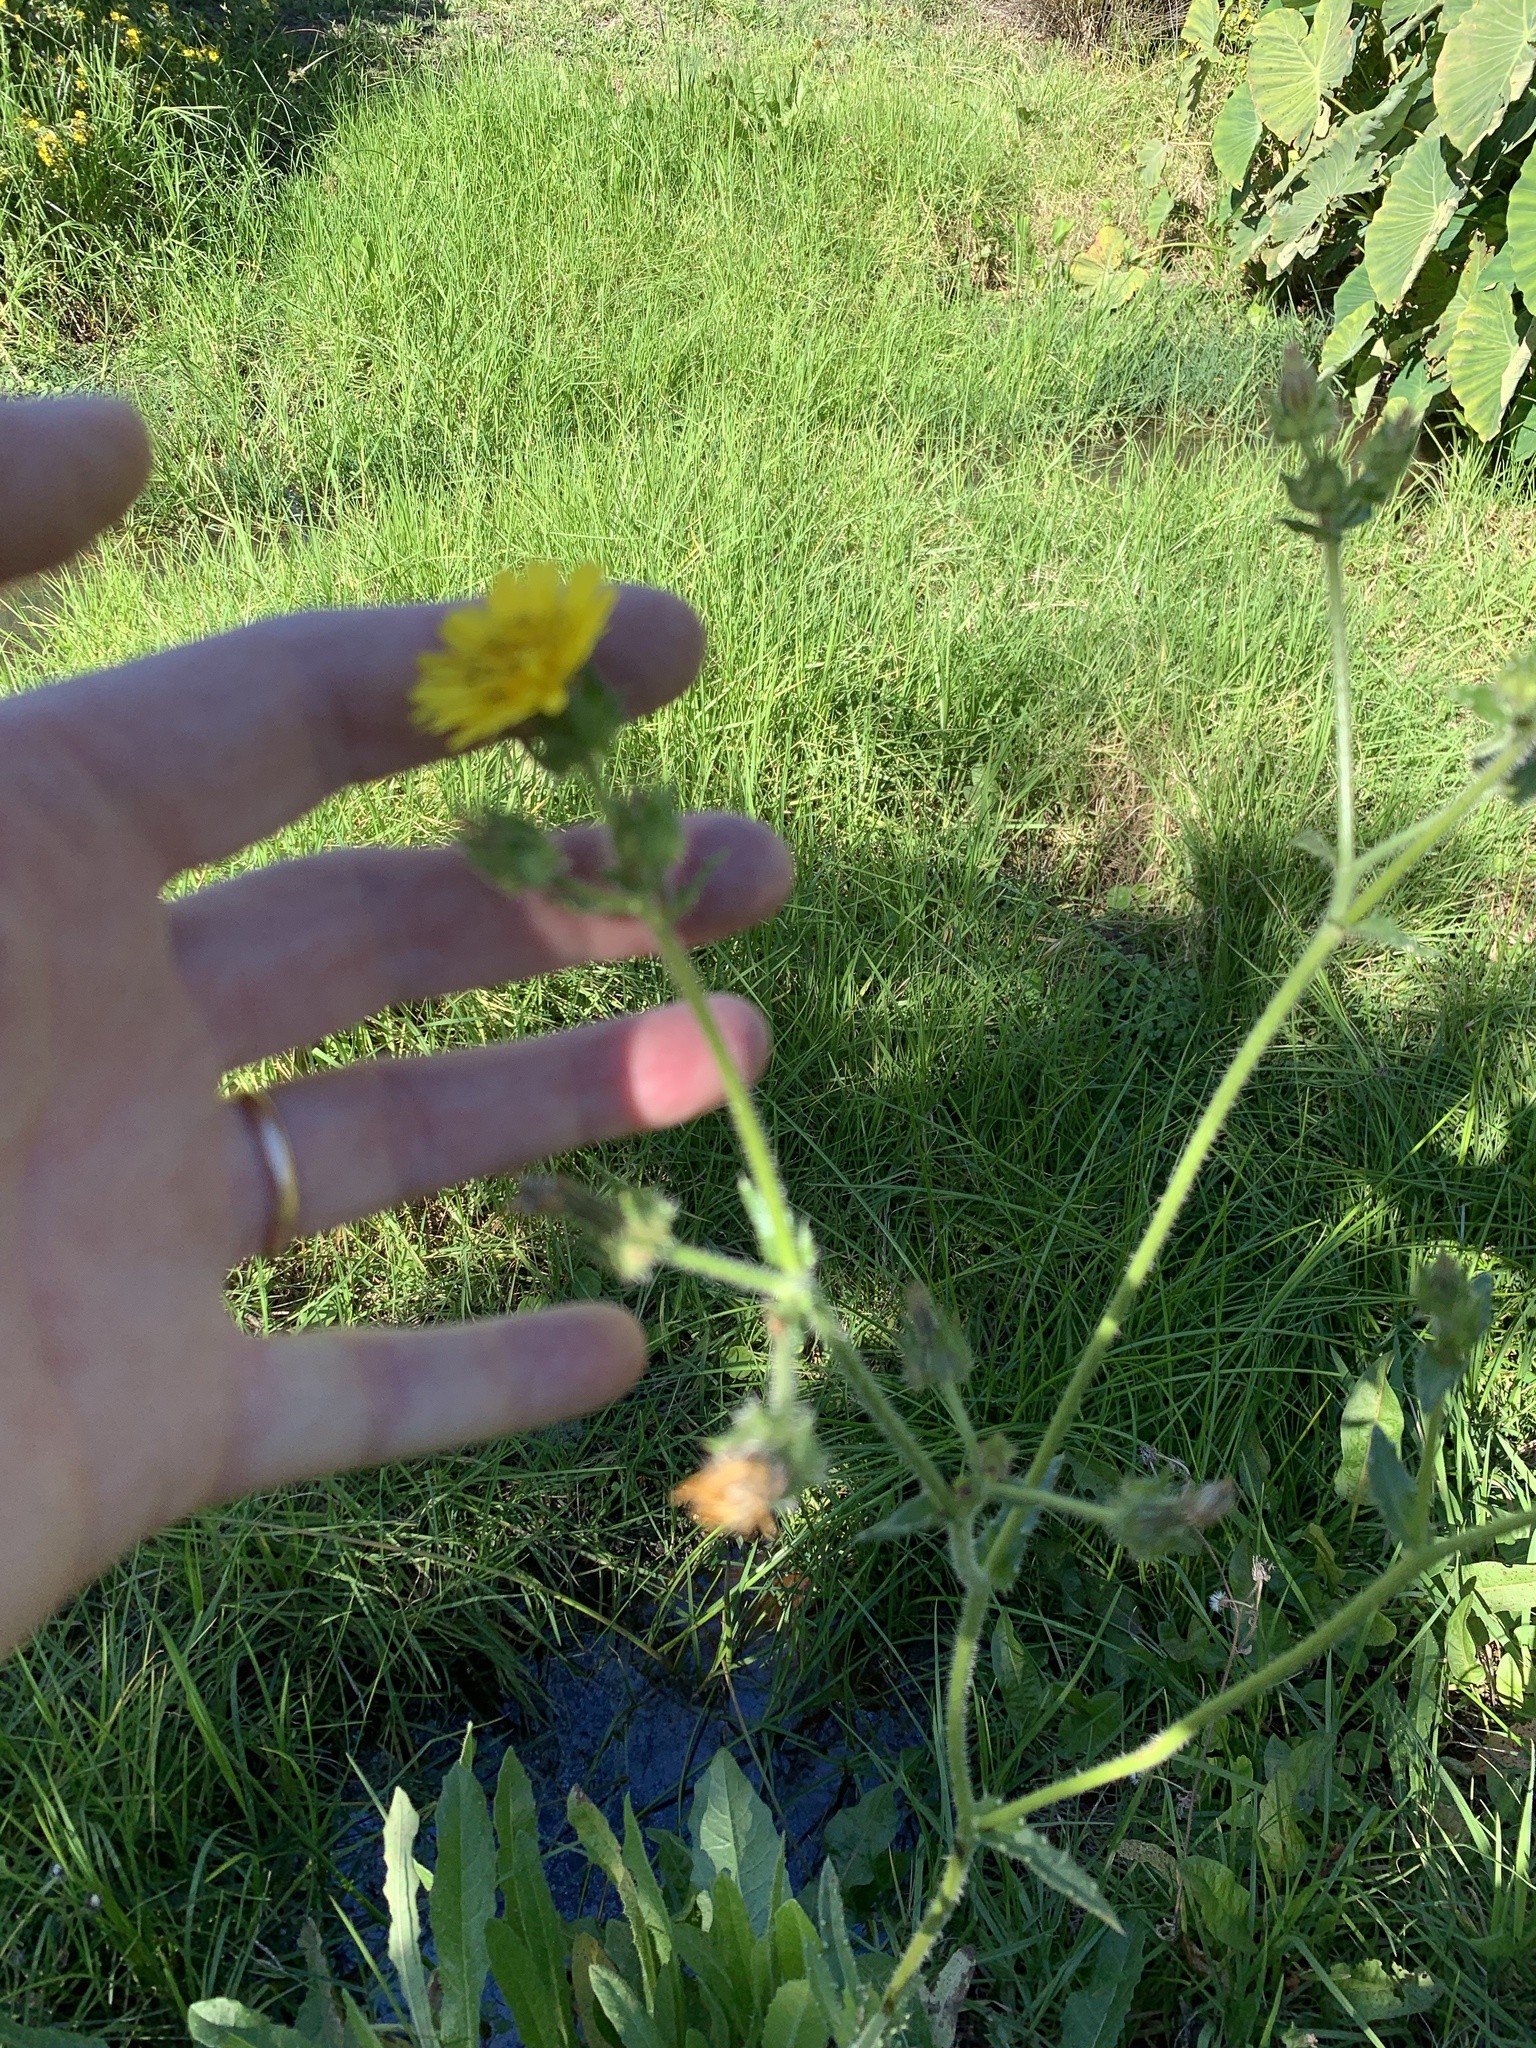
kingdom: Plantae
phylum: Tracheophyta
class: Magnoliopsida
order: Asterales
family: Asteraceae
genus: Helminthotheca
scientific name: Helminthotheca echioides
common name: Ox-tongue
